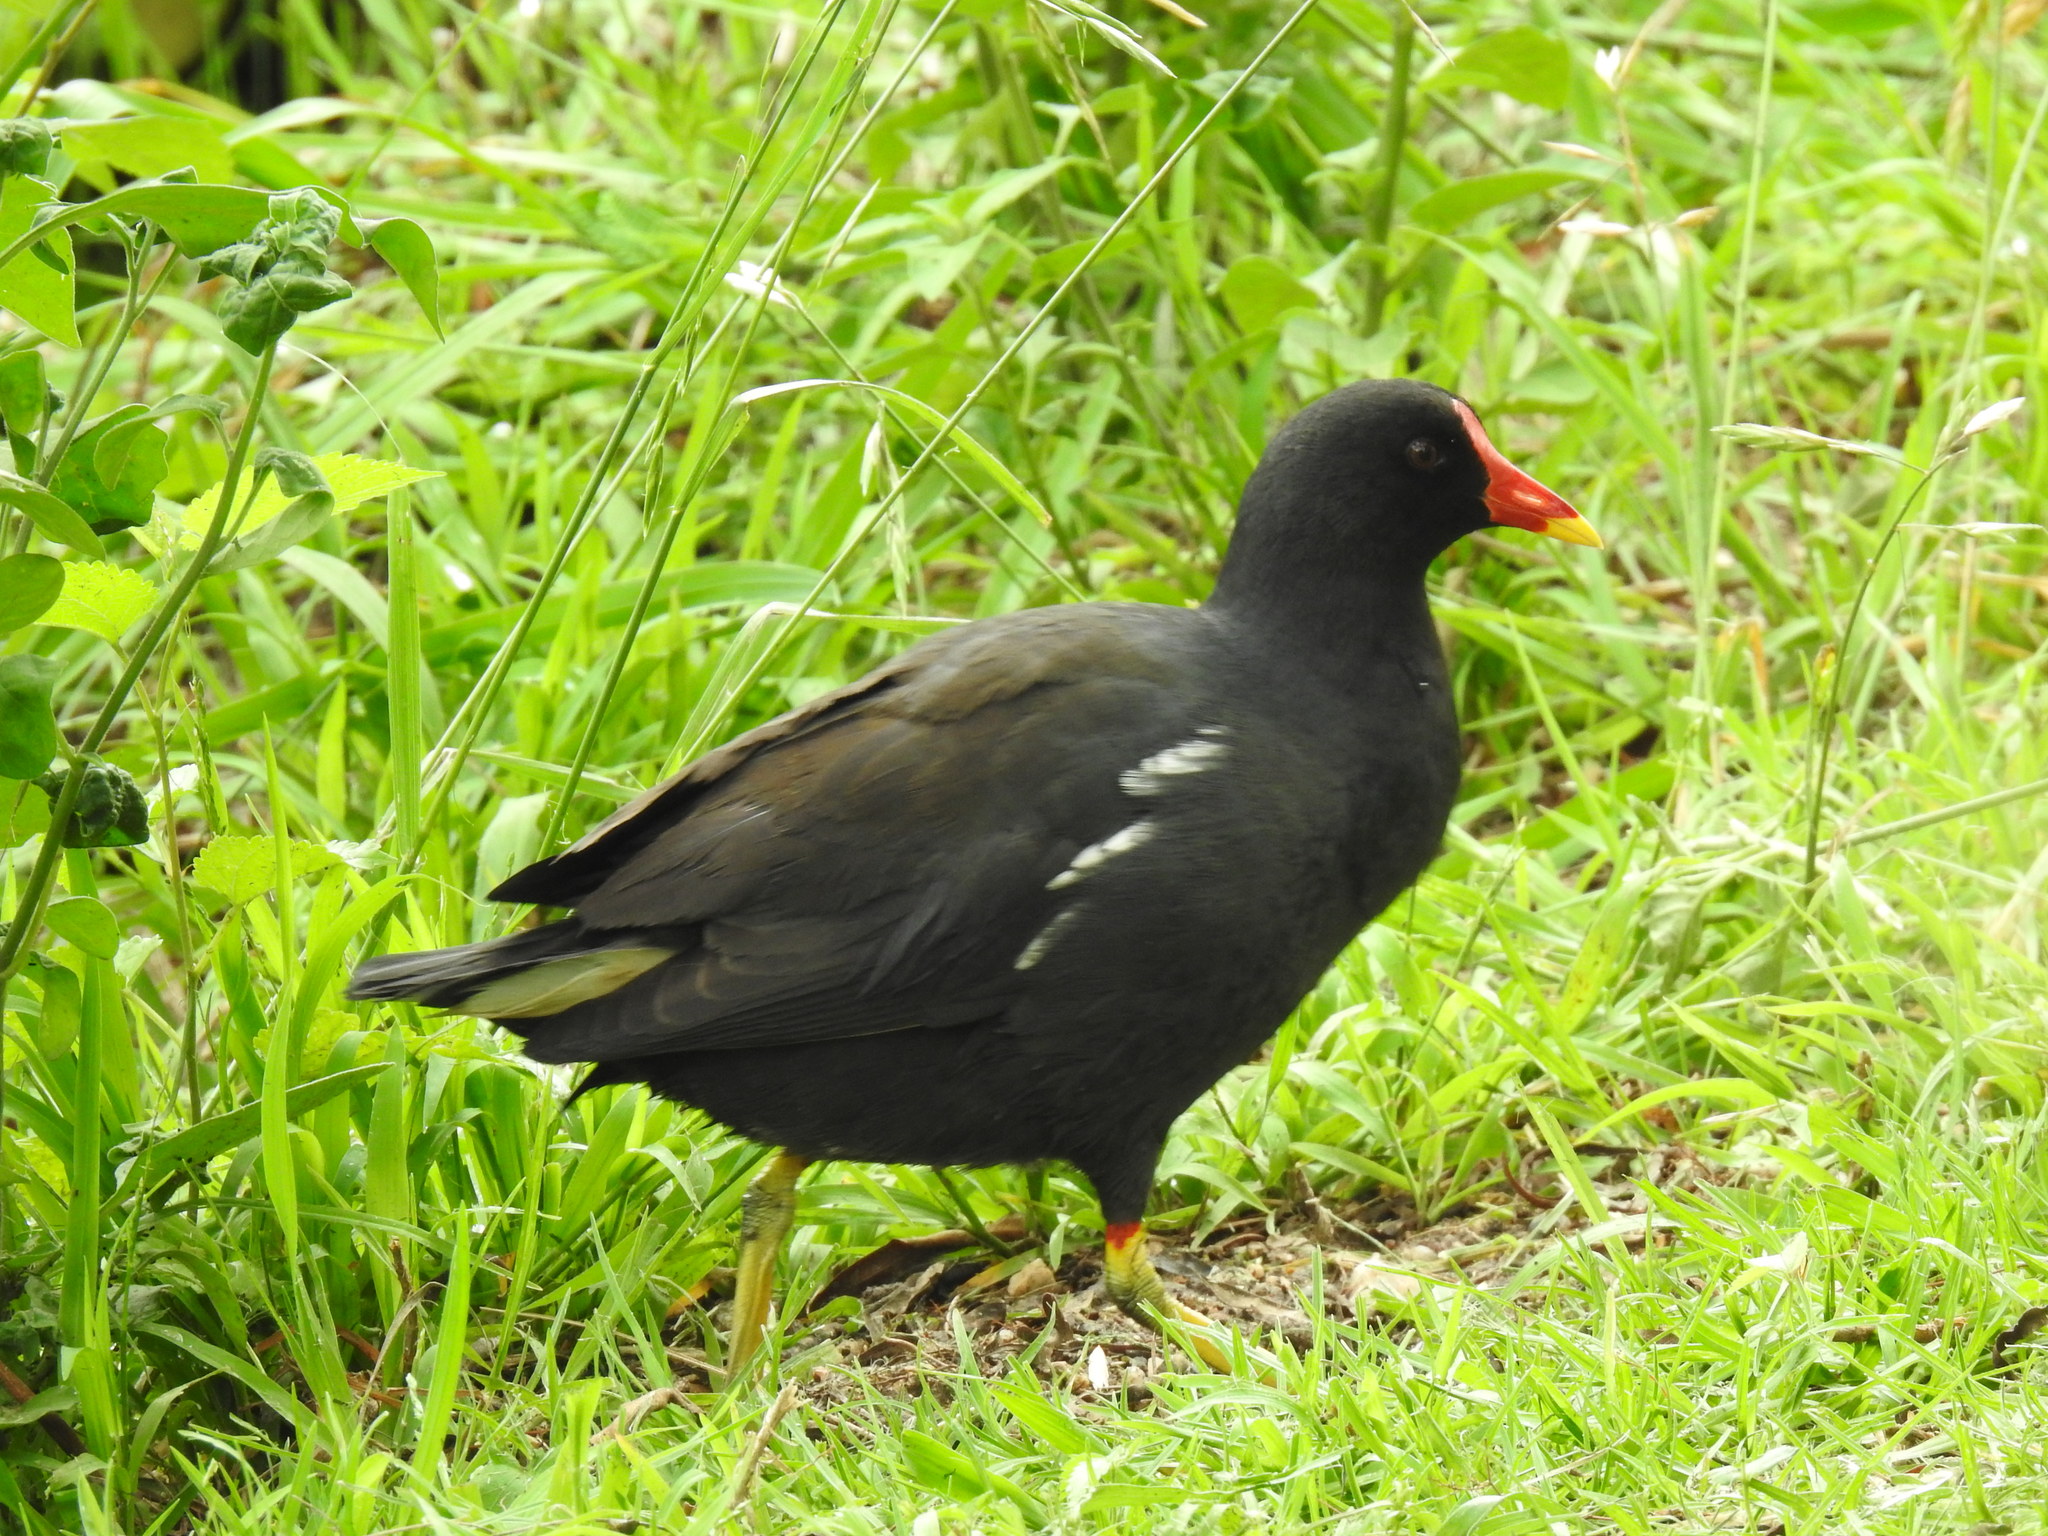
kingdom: Animalia
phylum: Chordata
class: Aves
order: Gruiformes
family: Rallidae
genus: Gallinula
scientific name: Gallinula chloropus
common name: Common moorhen
